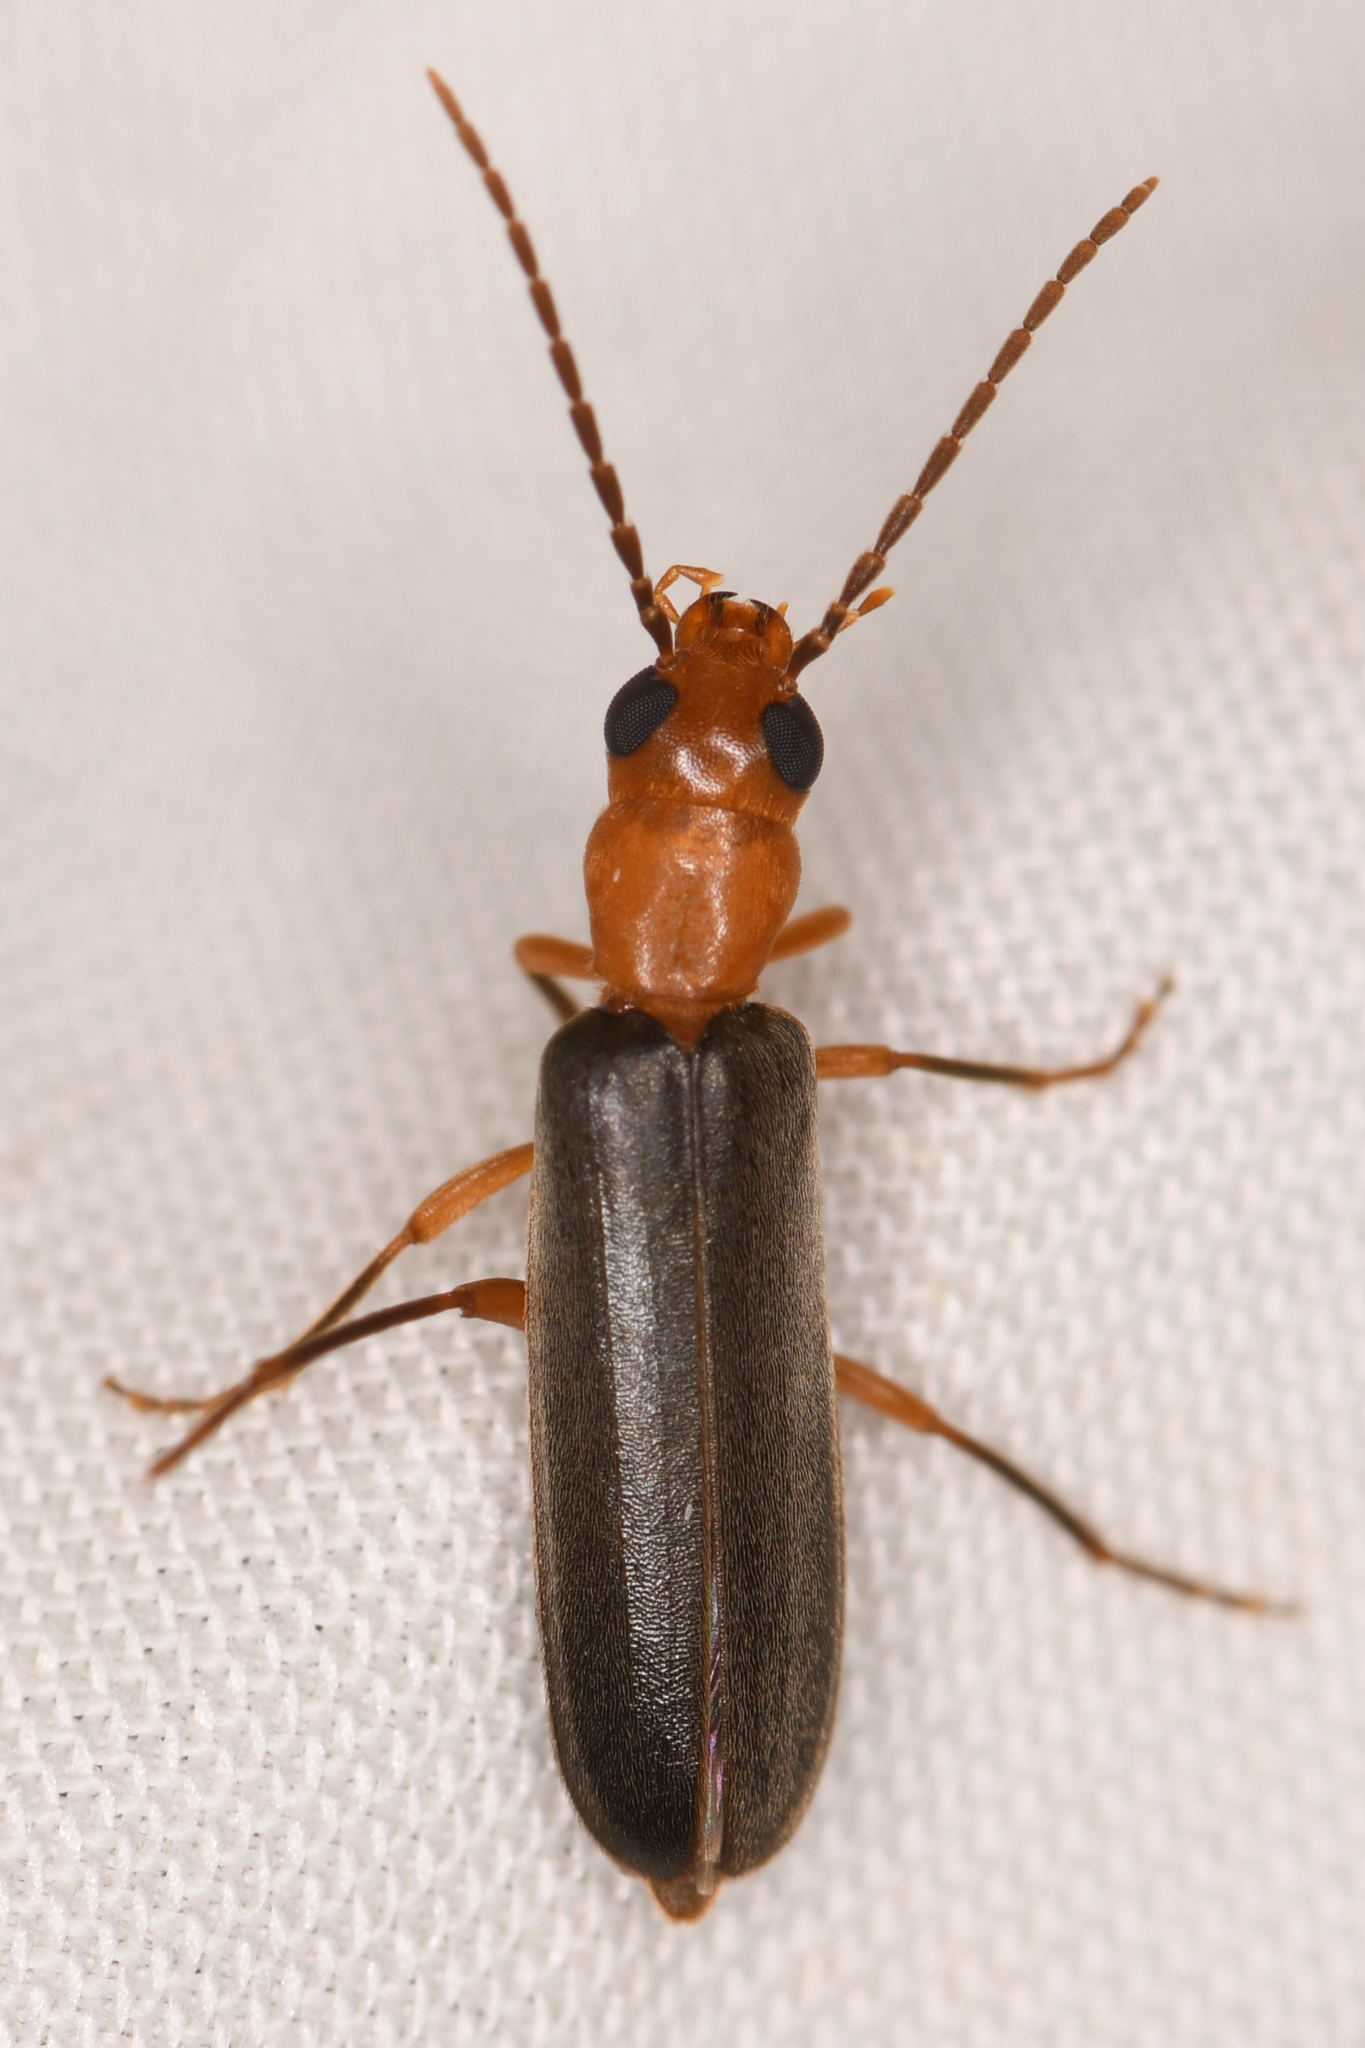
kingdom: Animalia
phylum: Arthropoda
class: Insecta
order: Coleoptera
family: Oedemeridae
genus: Xanthochroina
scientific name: Xanthochroina bicolor
